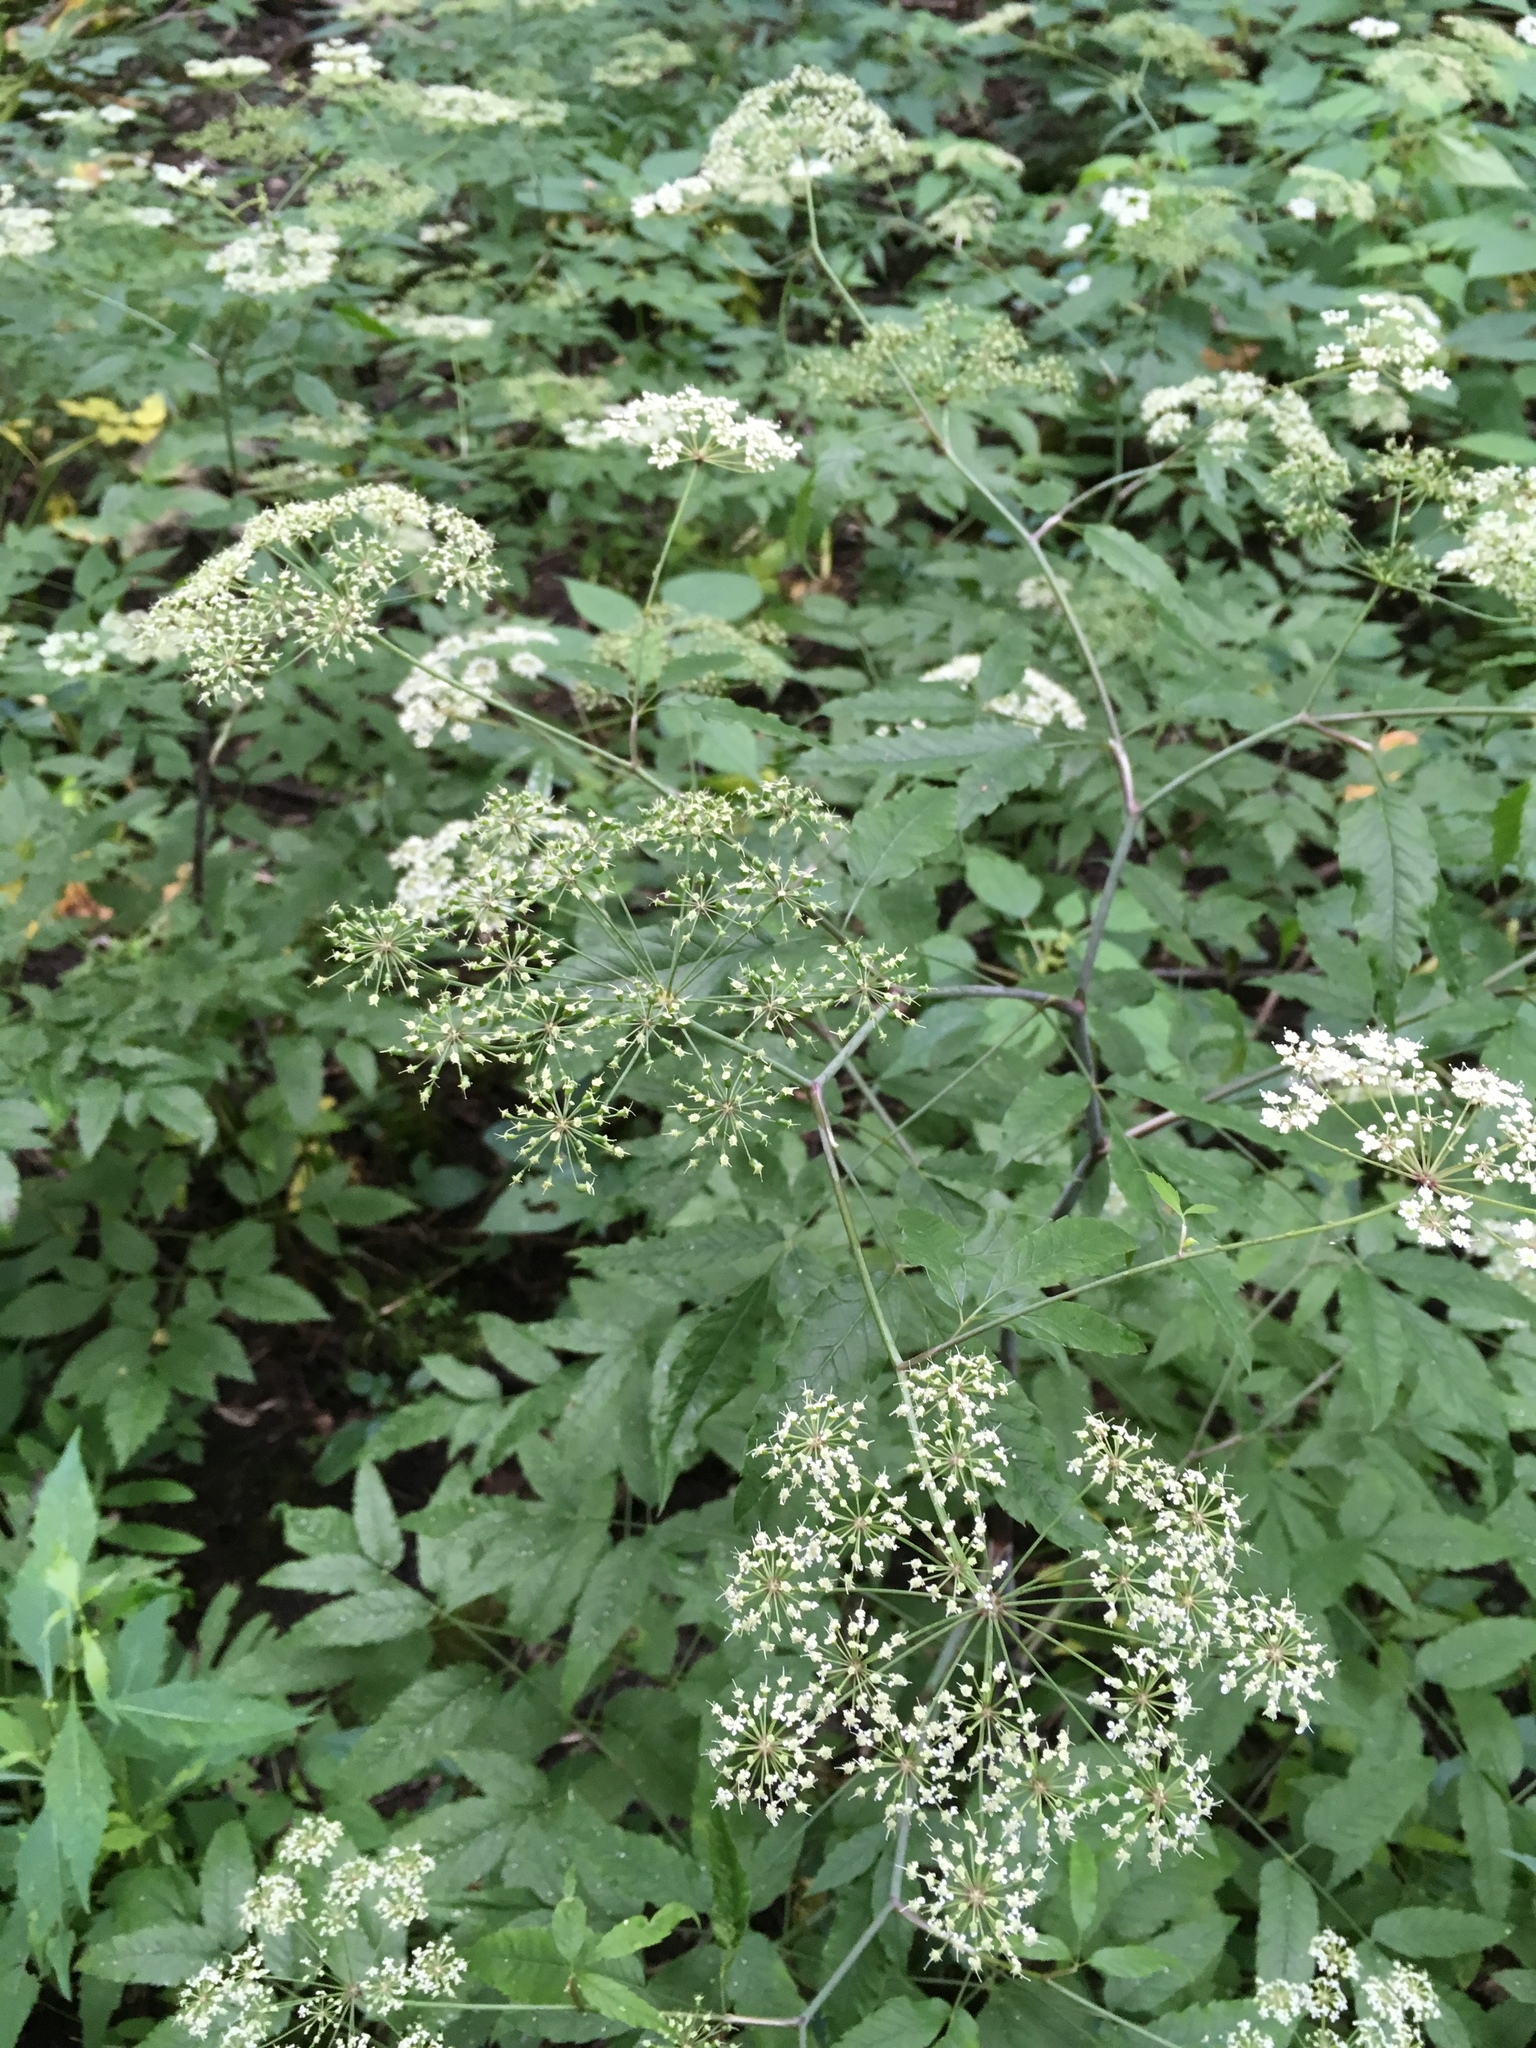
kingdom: Plantae
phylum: Tracheophyta
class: Magnoliopsida
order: Apiales
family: Apiaceae
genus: Cicuta
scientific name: Cicuta maculata
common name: Spotted cowbane
